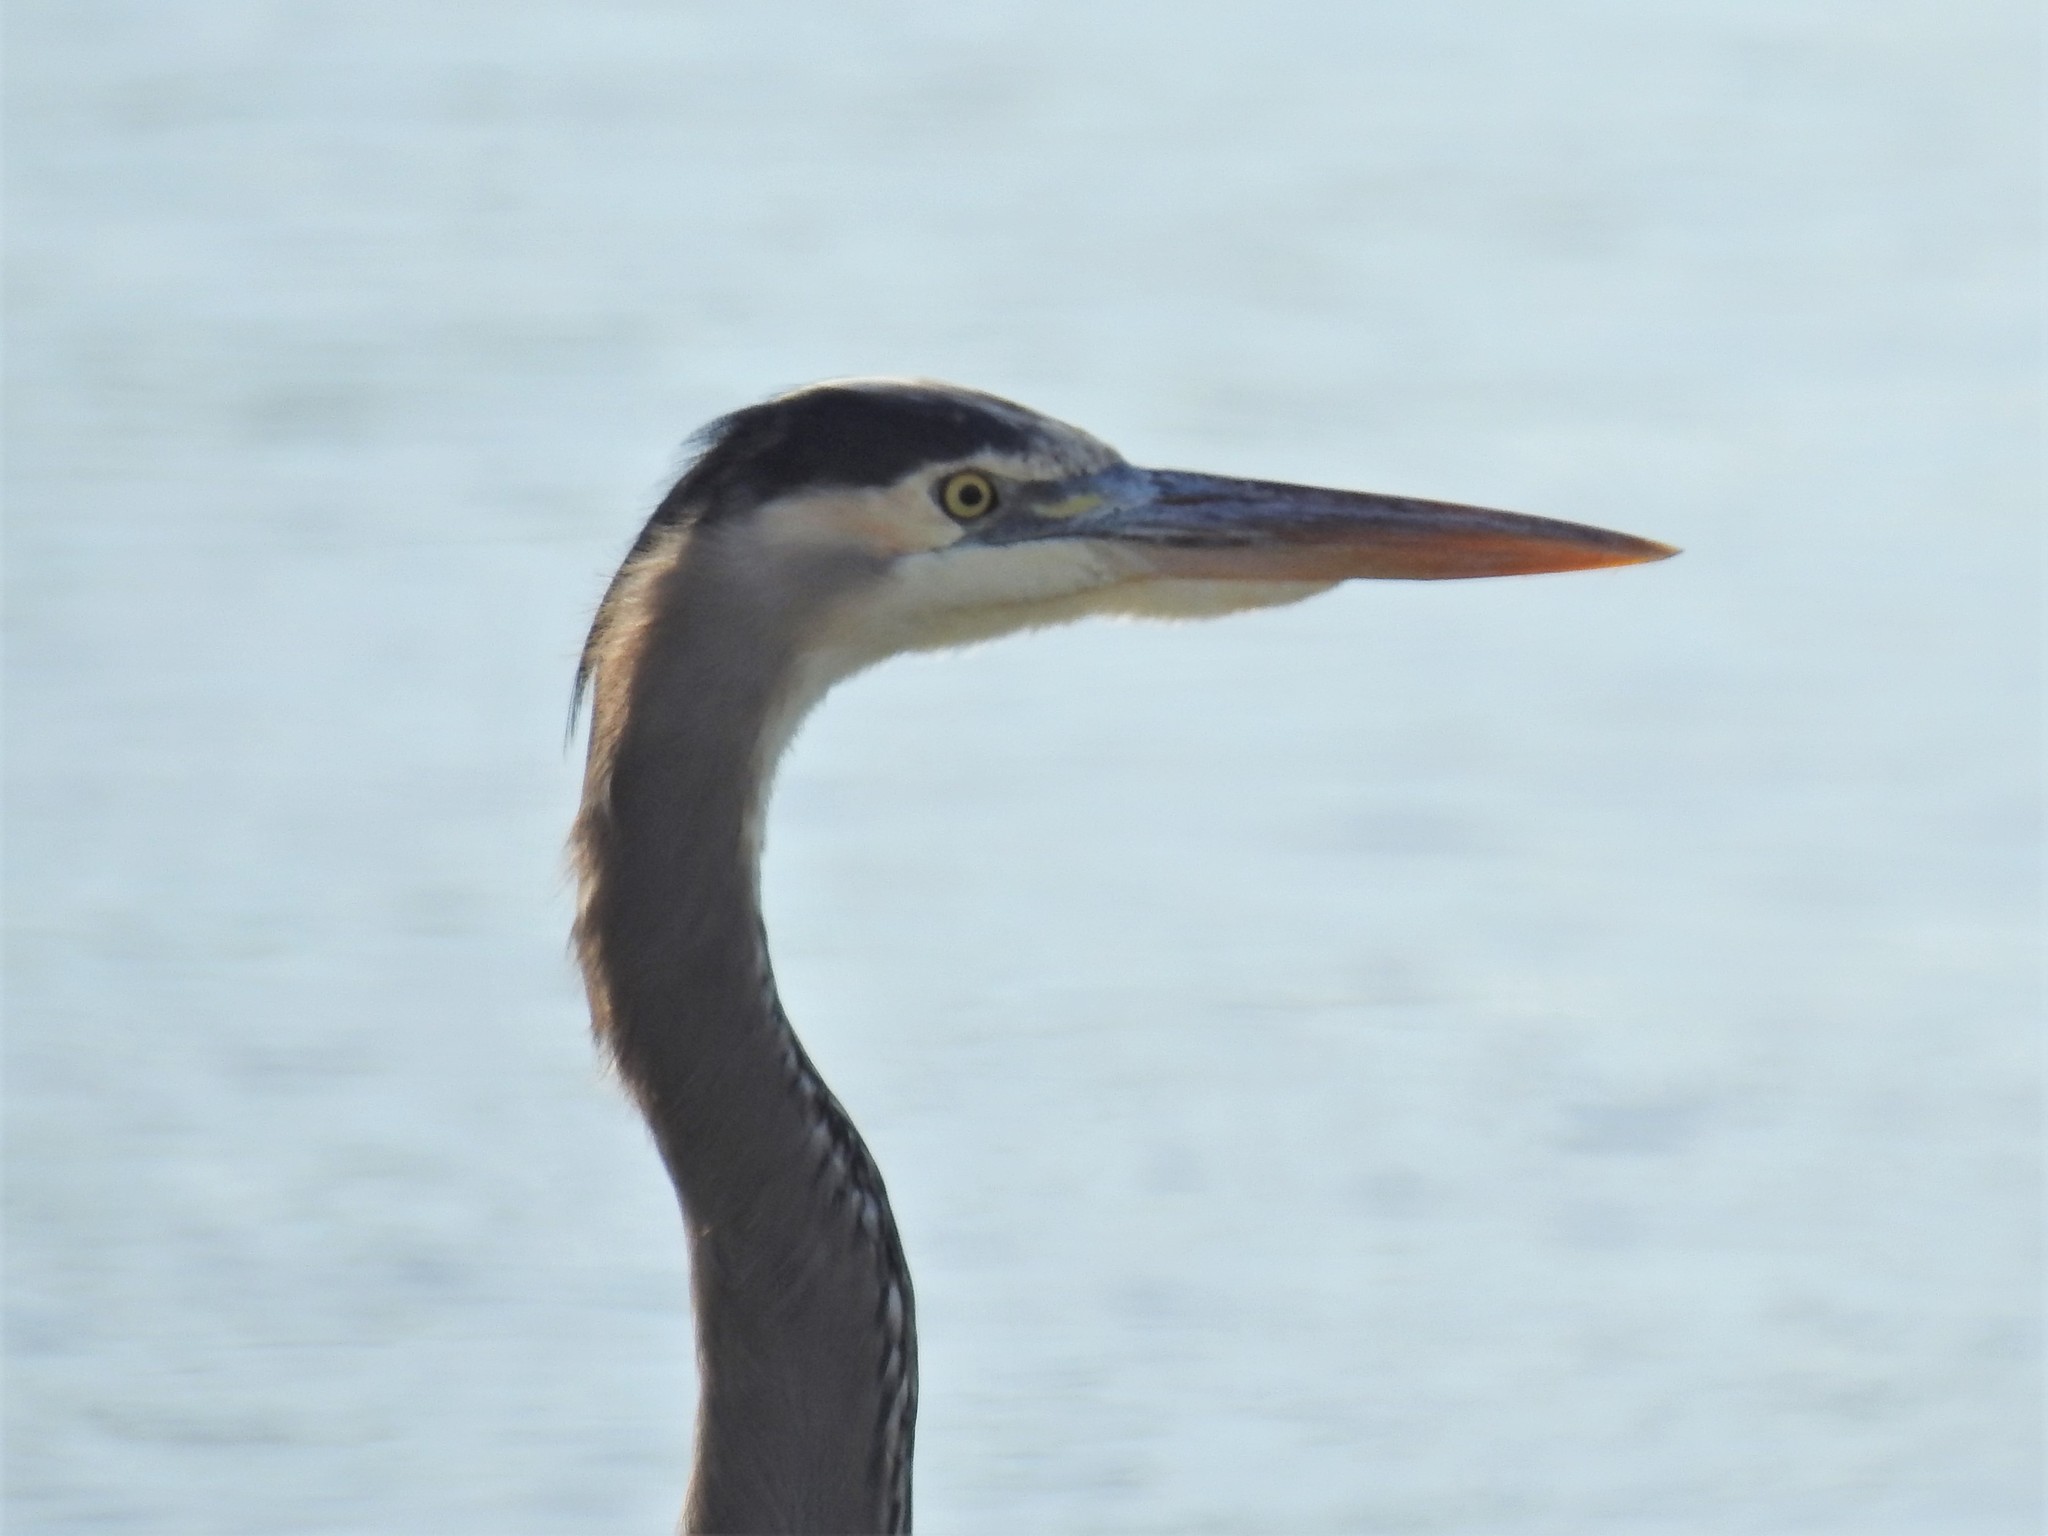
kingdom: Animalia
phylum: Chordata
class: Aves
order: Pelecaniformes
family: Ardeidae
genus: Ardea
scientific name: Ardea herodias
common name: Great blue heron
